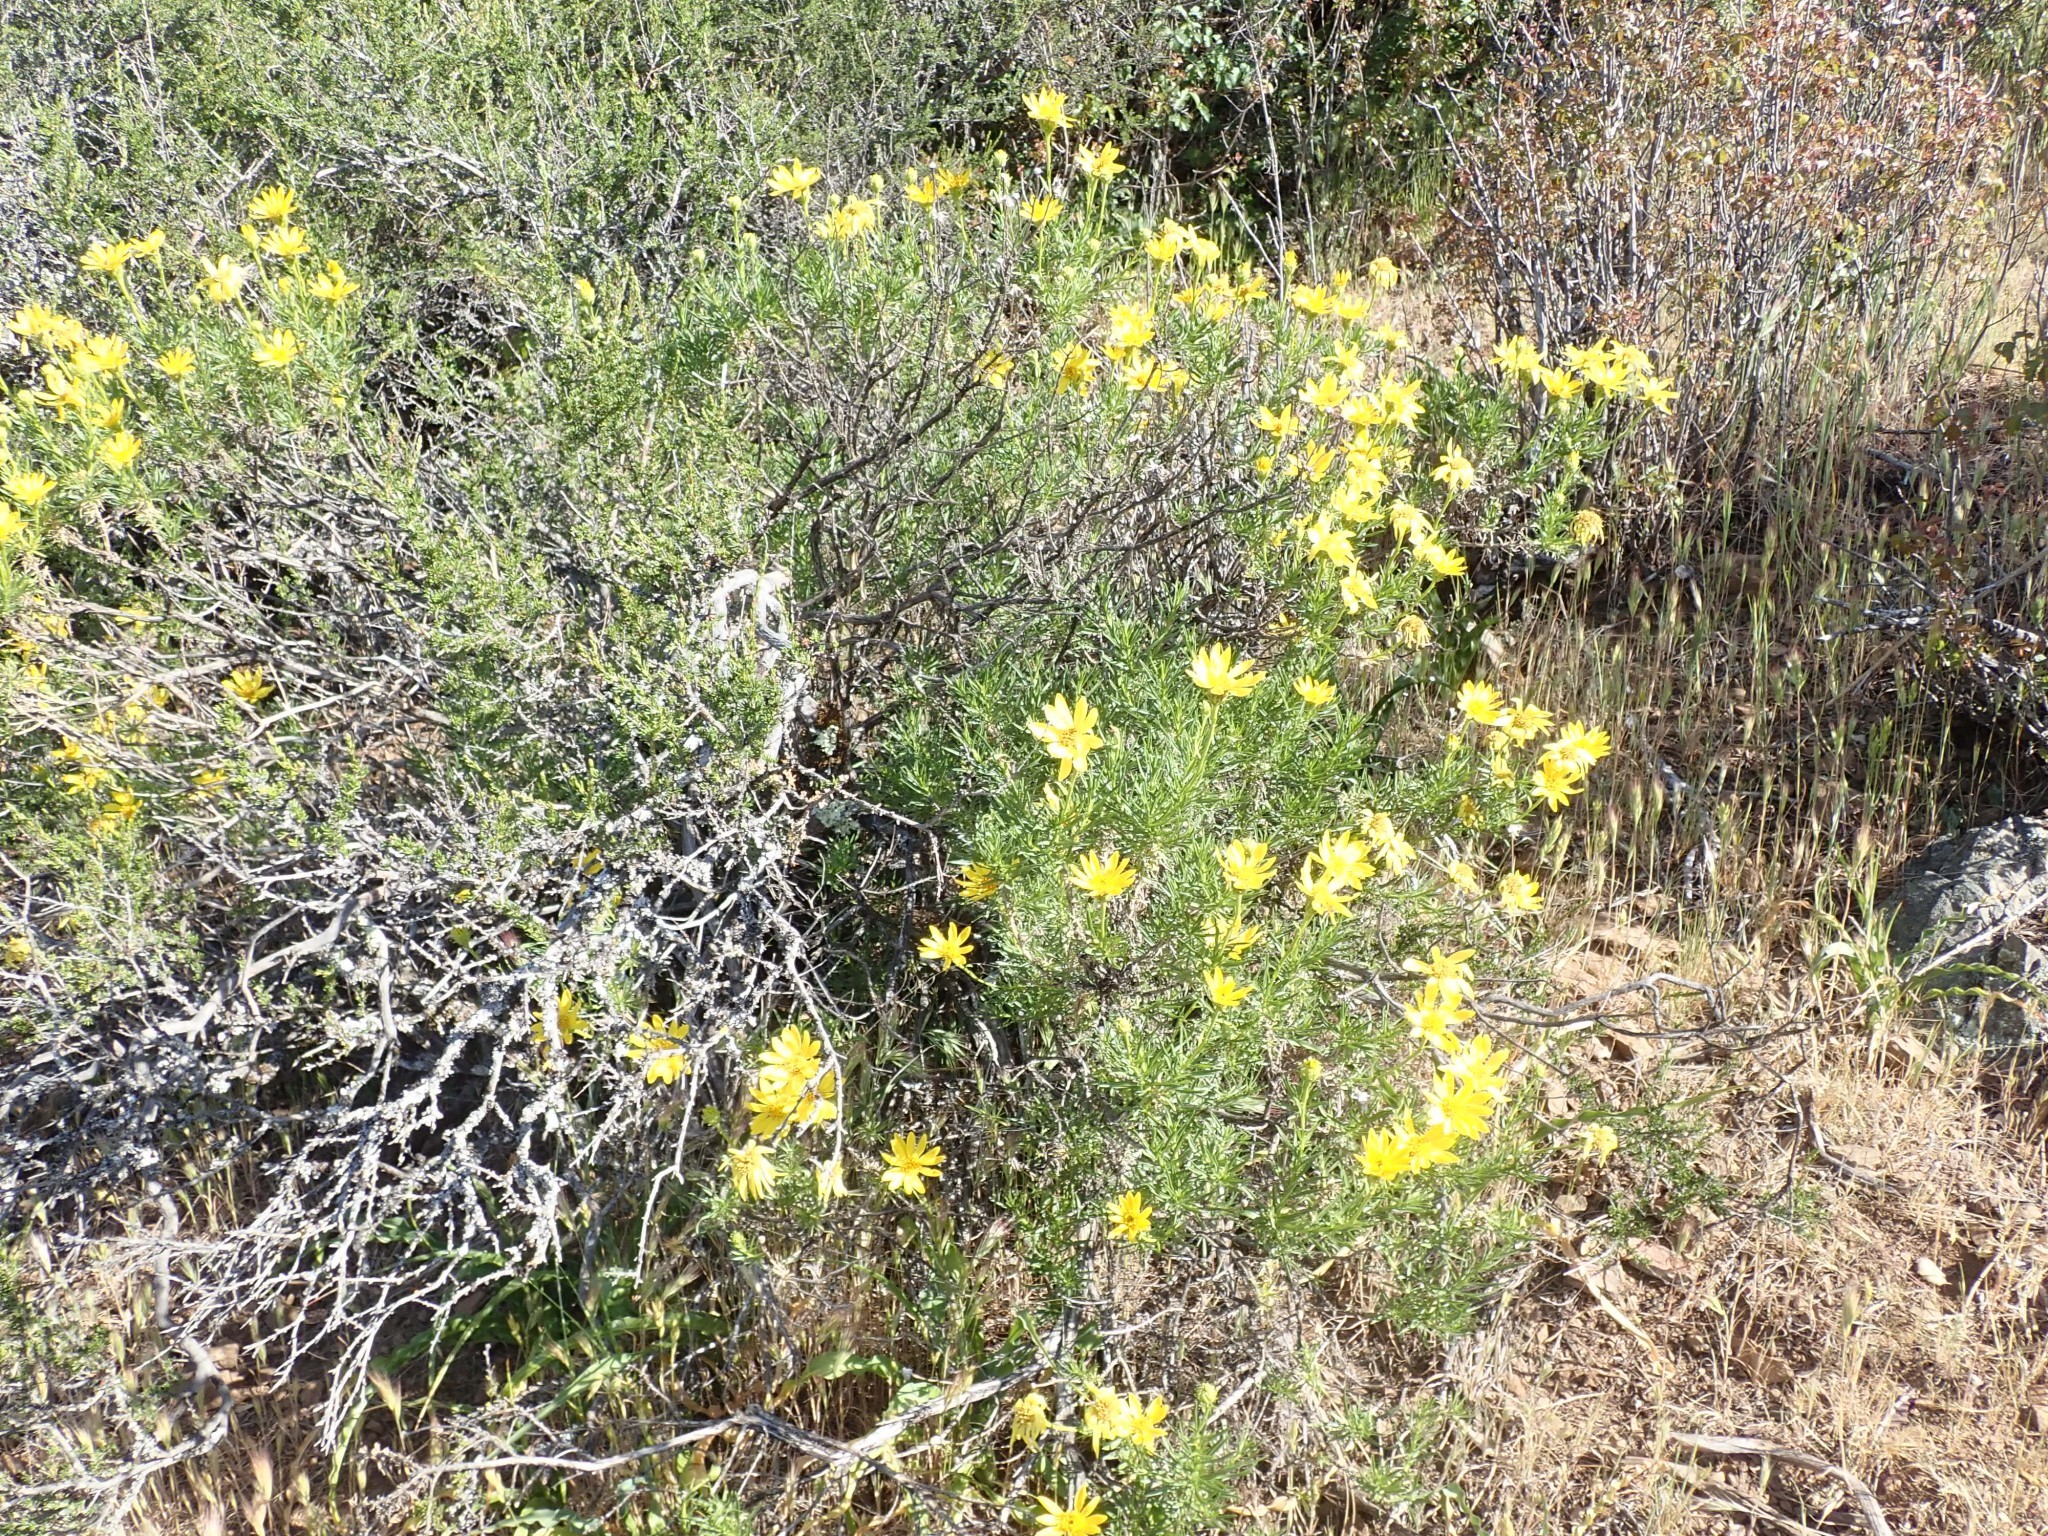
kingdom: Plantae
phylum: Tracheophyta
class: Magnoliopsida
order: Asterales
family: Asteraceae
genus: Ericameria
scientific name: Ericameria linearifolia
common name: Interior goldenbush
